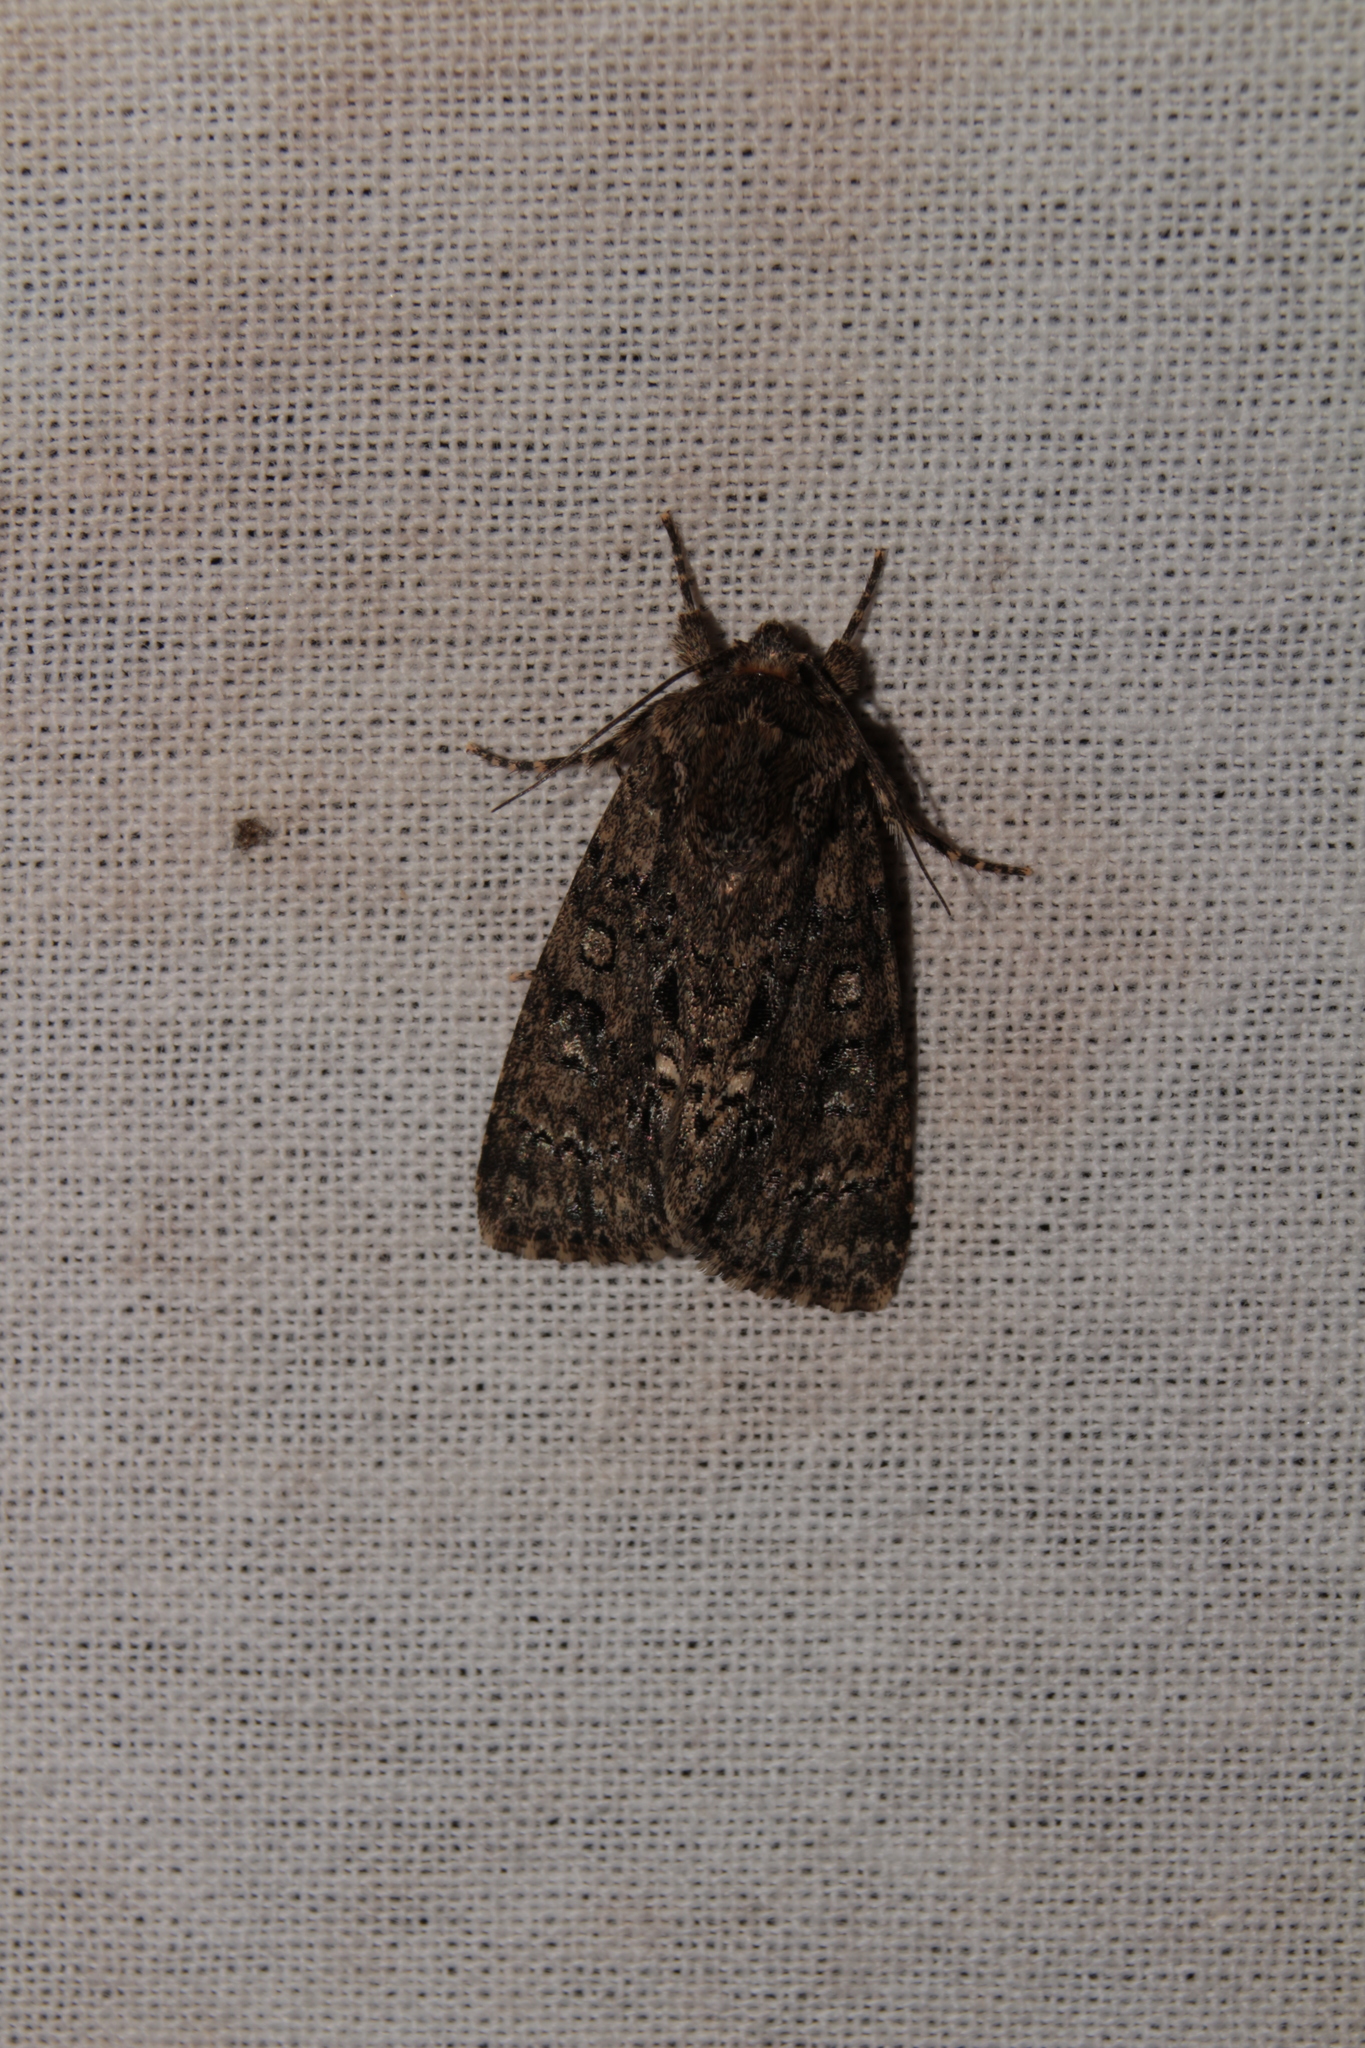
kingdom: Animalia
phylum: Arthropoda
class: Insecta
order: Lepidoptera
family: Noctuidae
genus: Acronicta
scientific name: Acronicta rumicis
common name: Knot grass
